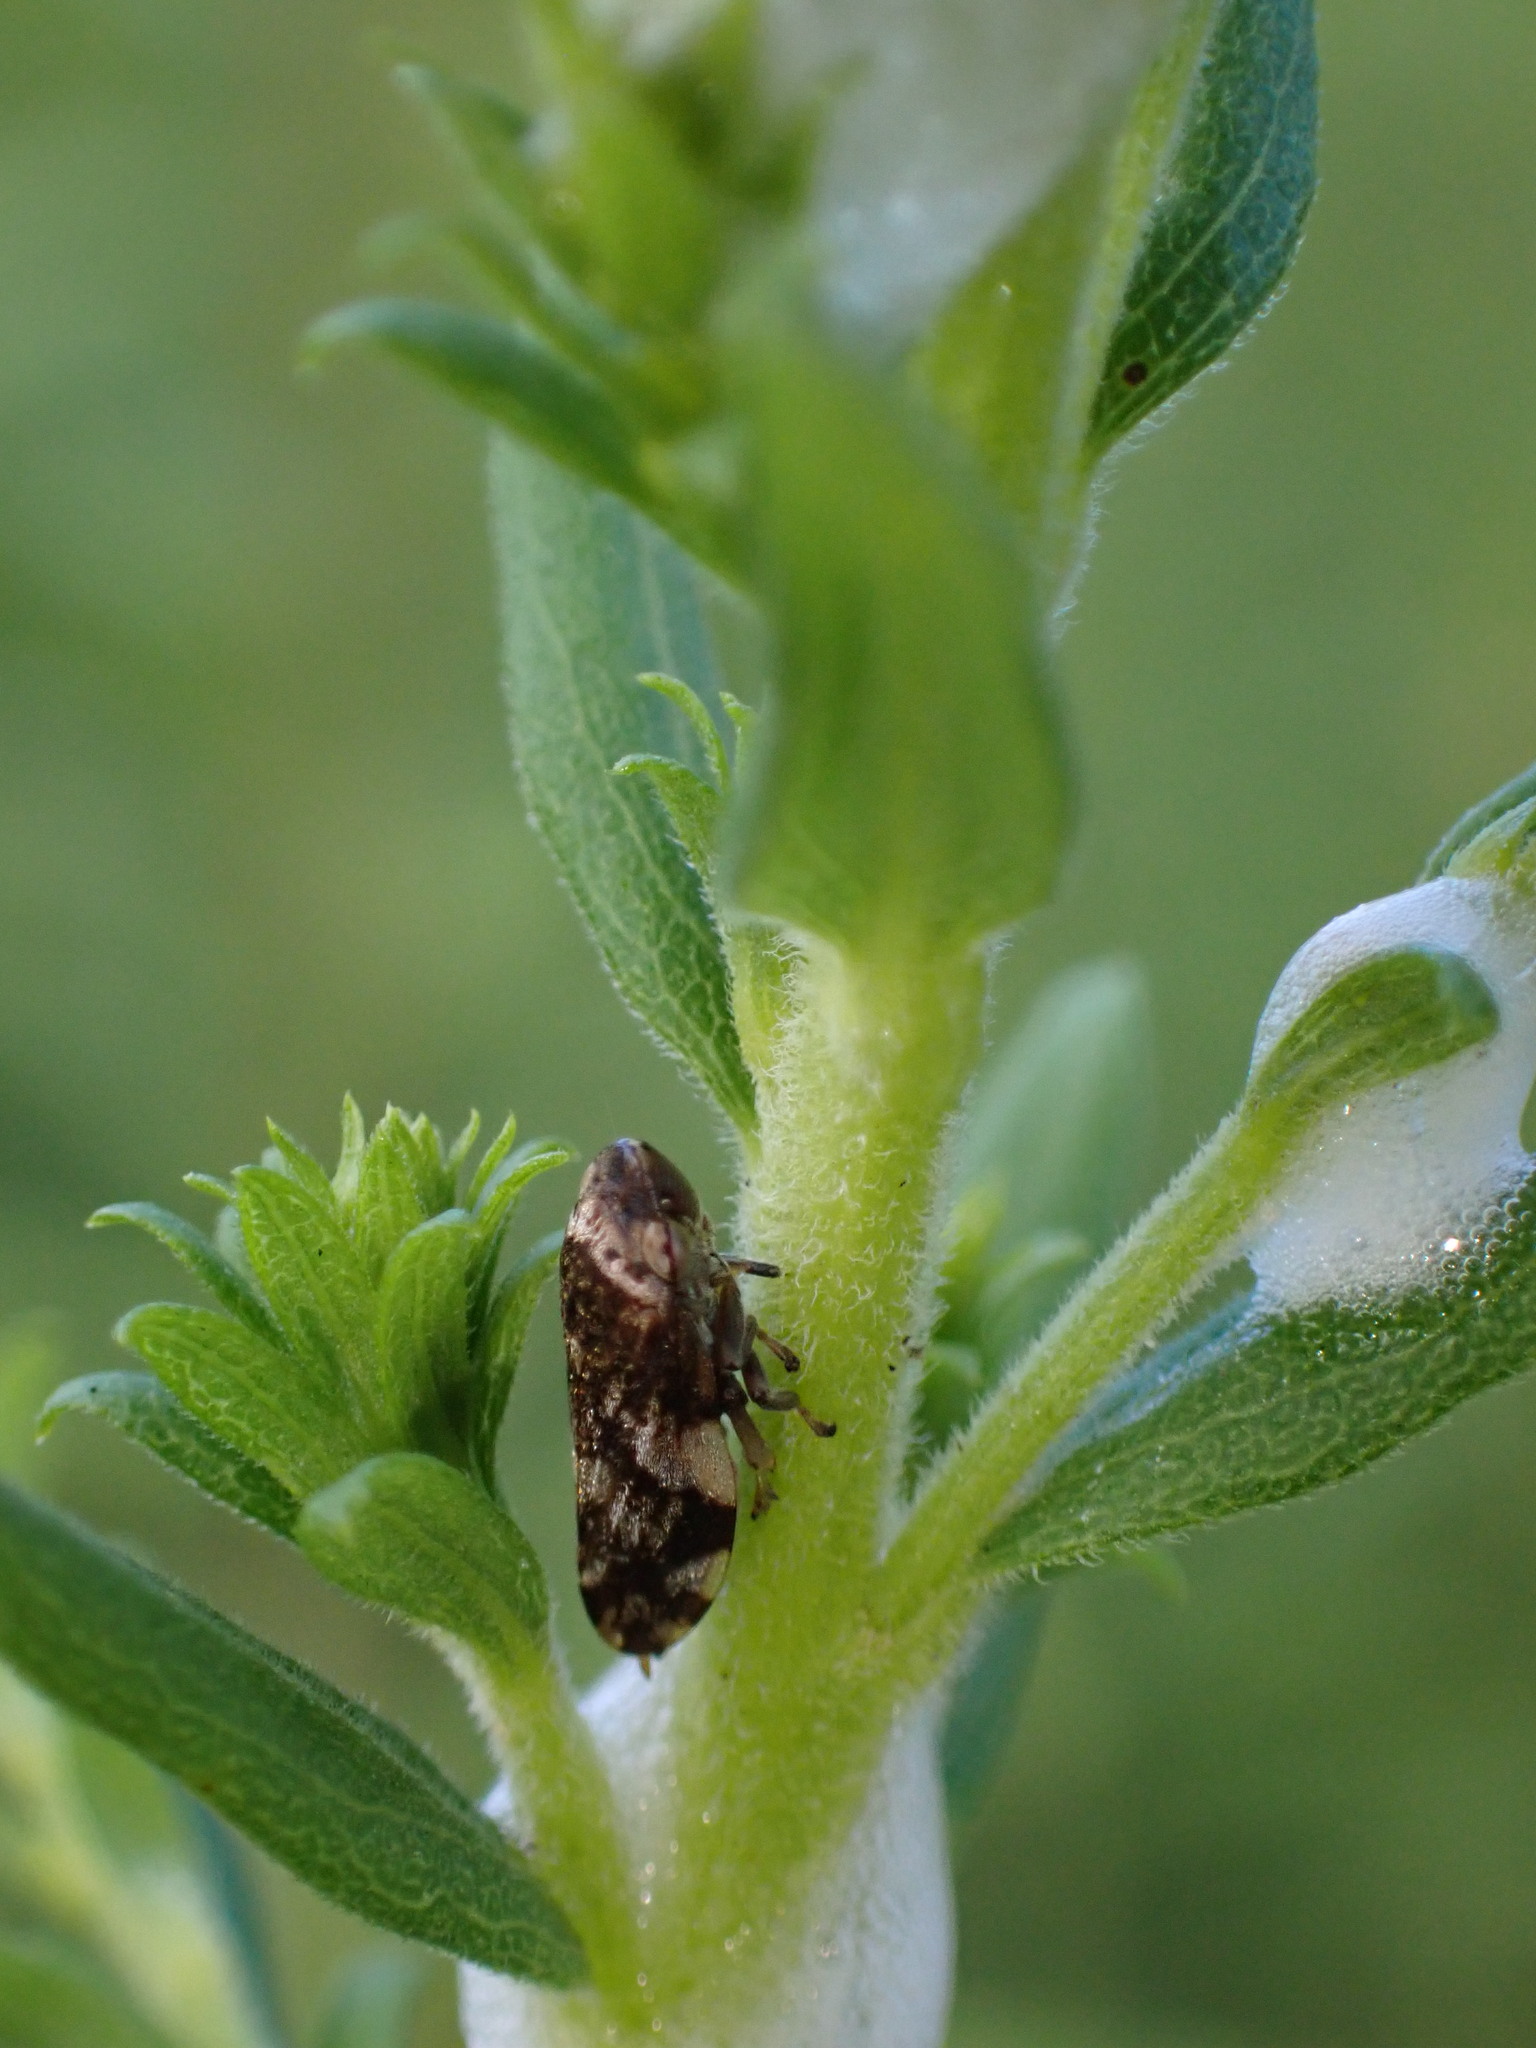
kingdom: Animalia
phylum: Arthropoda
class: Insecta
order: Hemiptera
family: Aphrophoridae
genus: Philaenus
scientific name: Philaenus spumarius
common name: Meadow spittlebug
